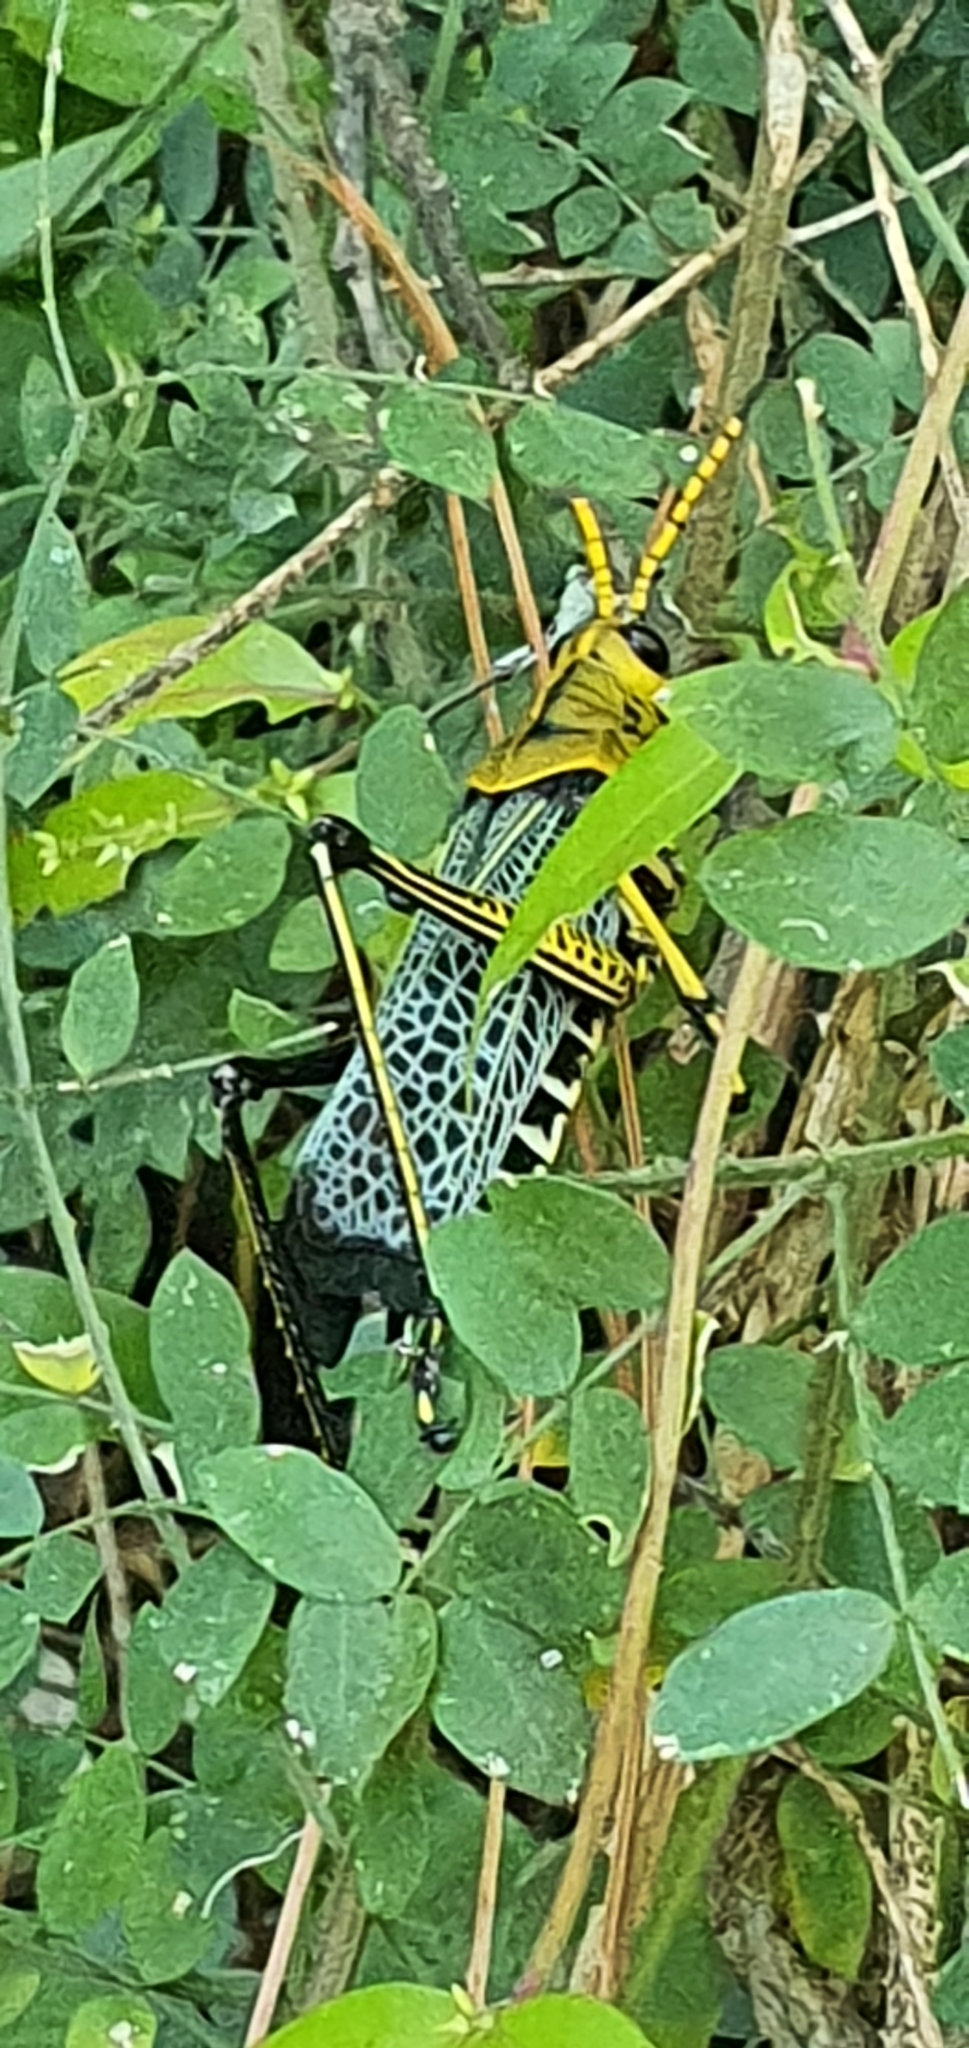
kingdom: Animalia
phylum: Arthropoda
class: Insecta
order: Orthoptera
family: Romaleidae
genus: Romalea
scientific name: Romalea
